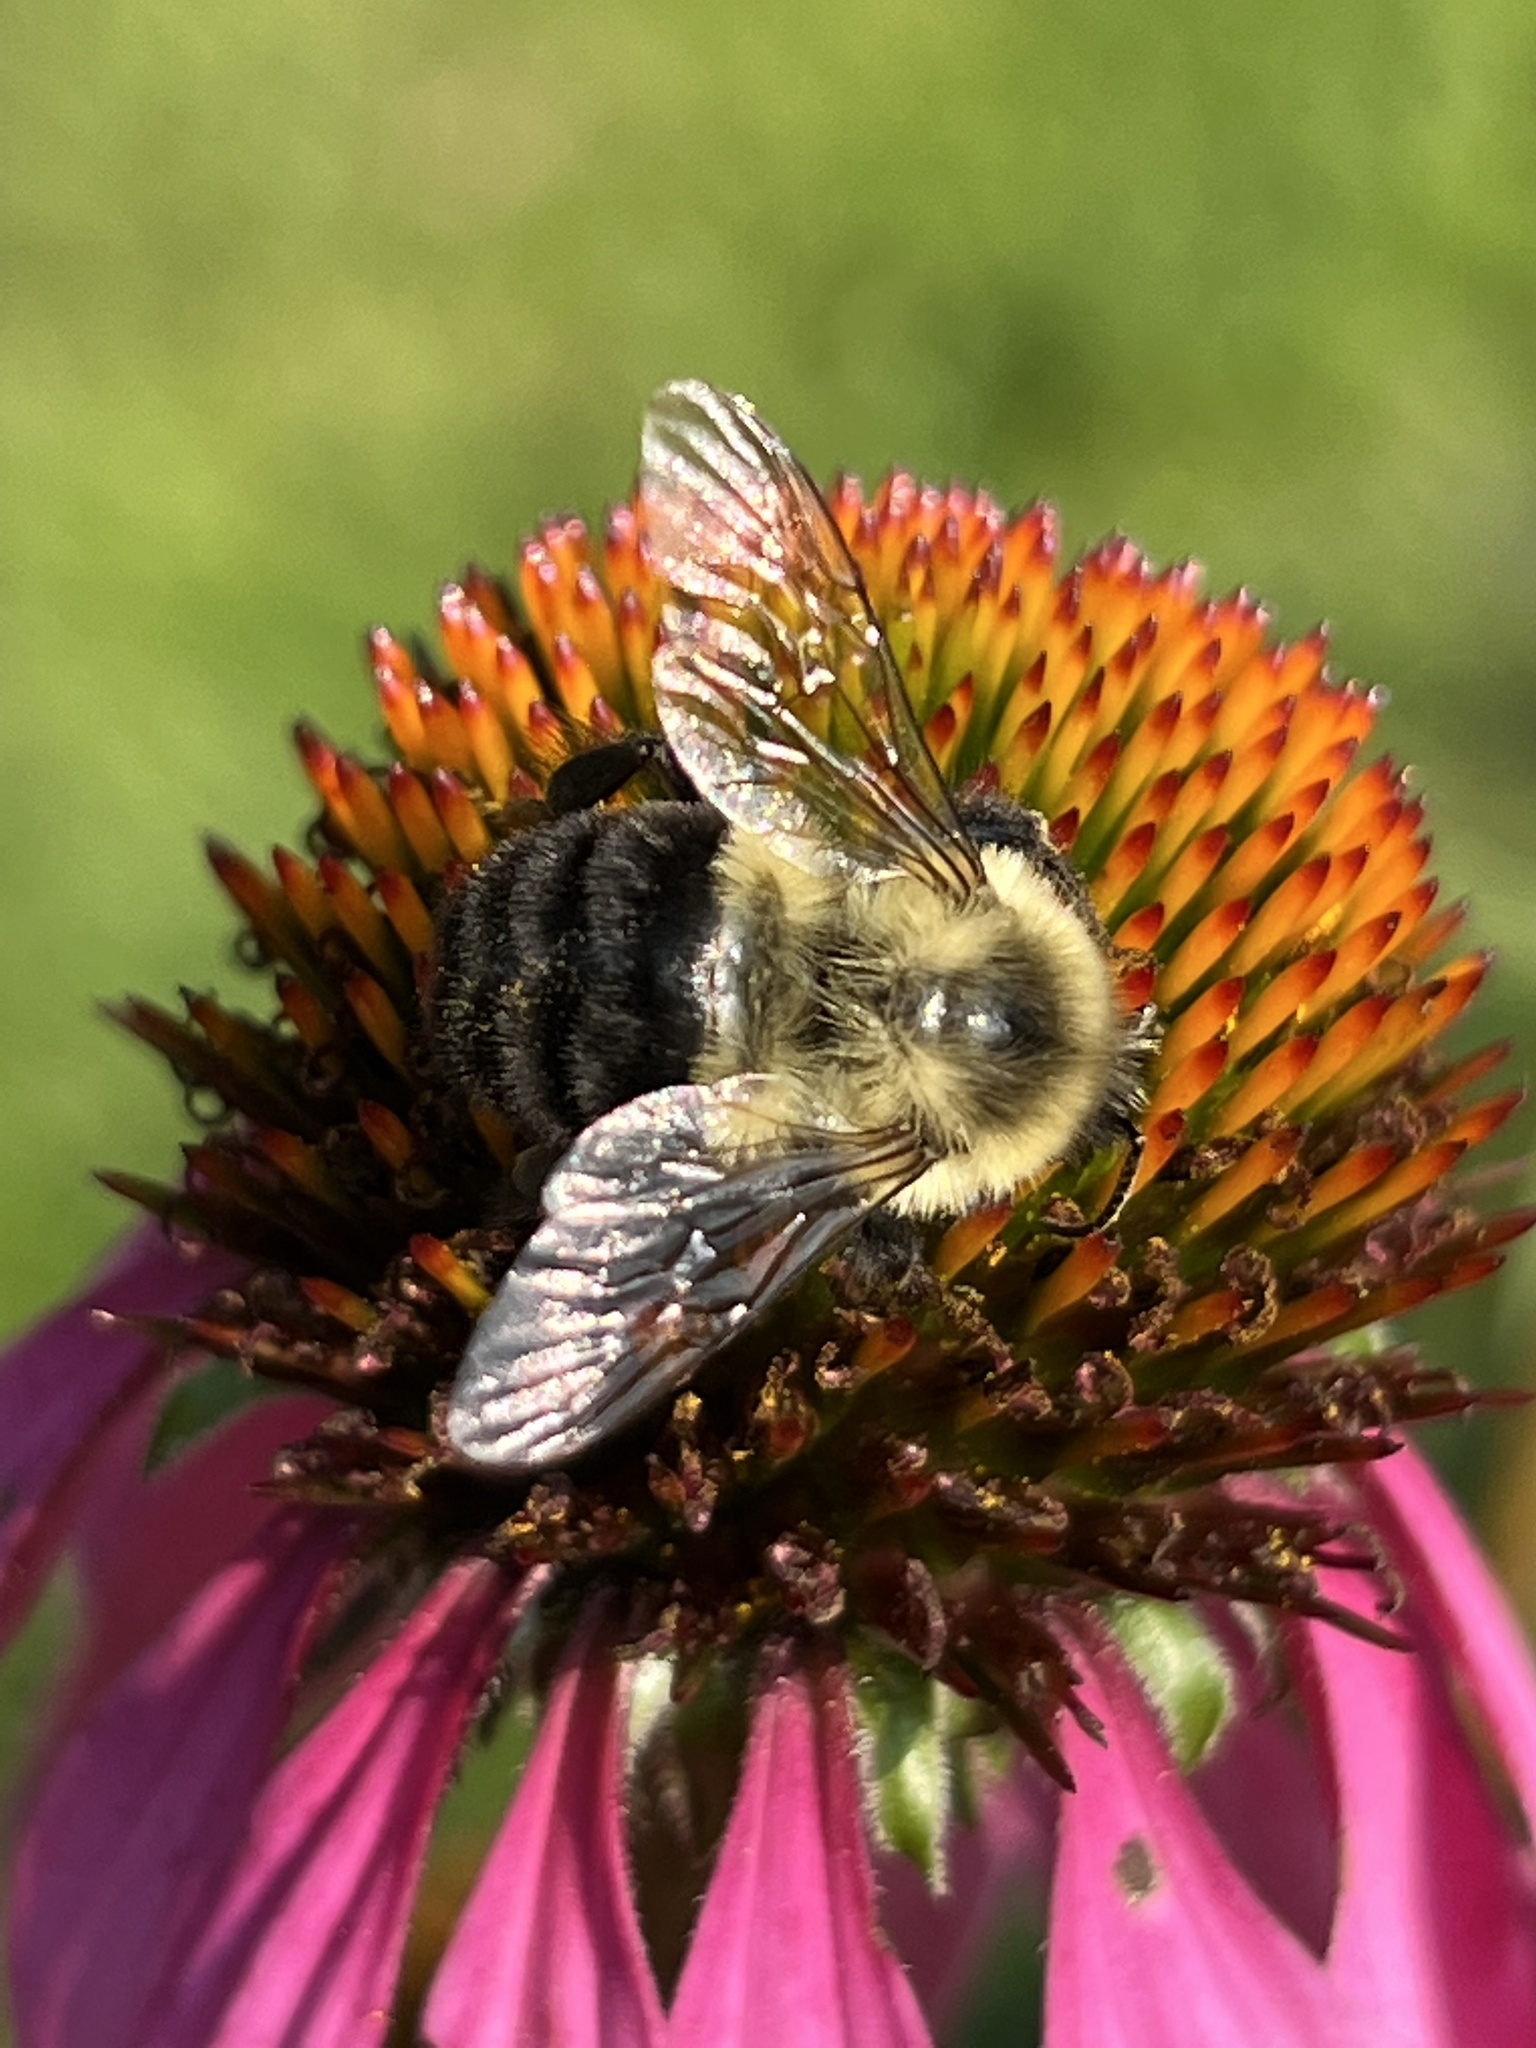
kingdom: Animalia
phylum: Arthropoda
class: Insecta
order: Hymenoptera
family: Apidae
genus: Bombus
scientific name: Bombus impatiens
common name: Common eastern bumble bee
